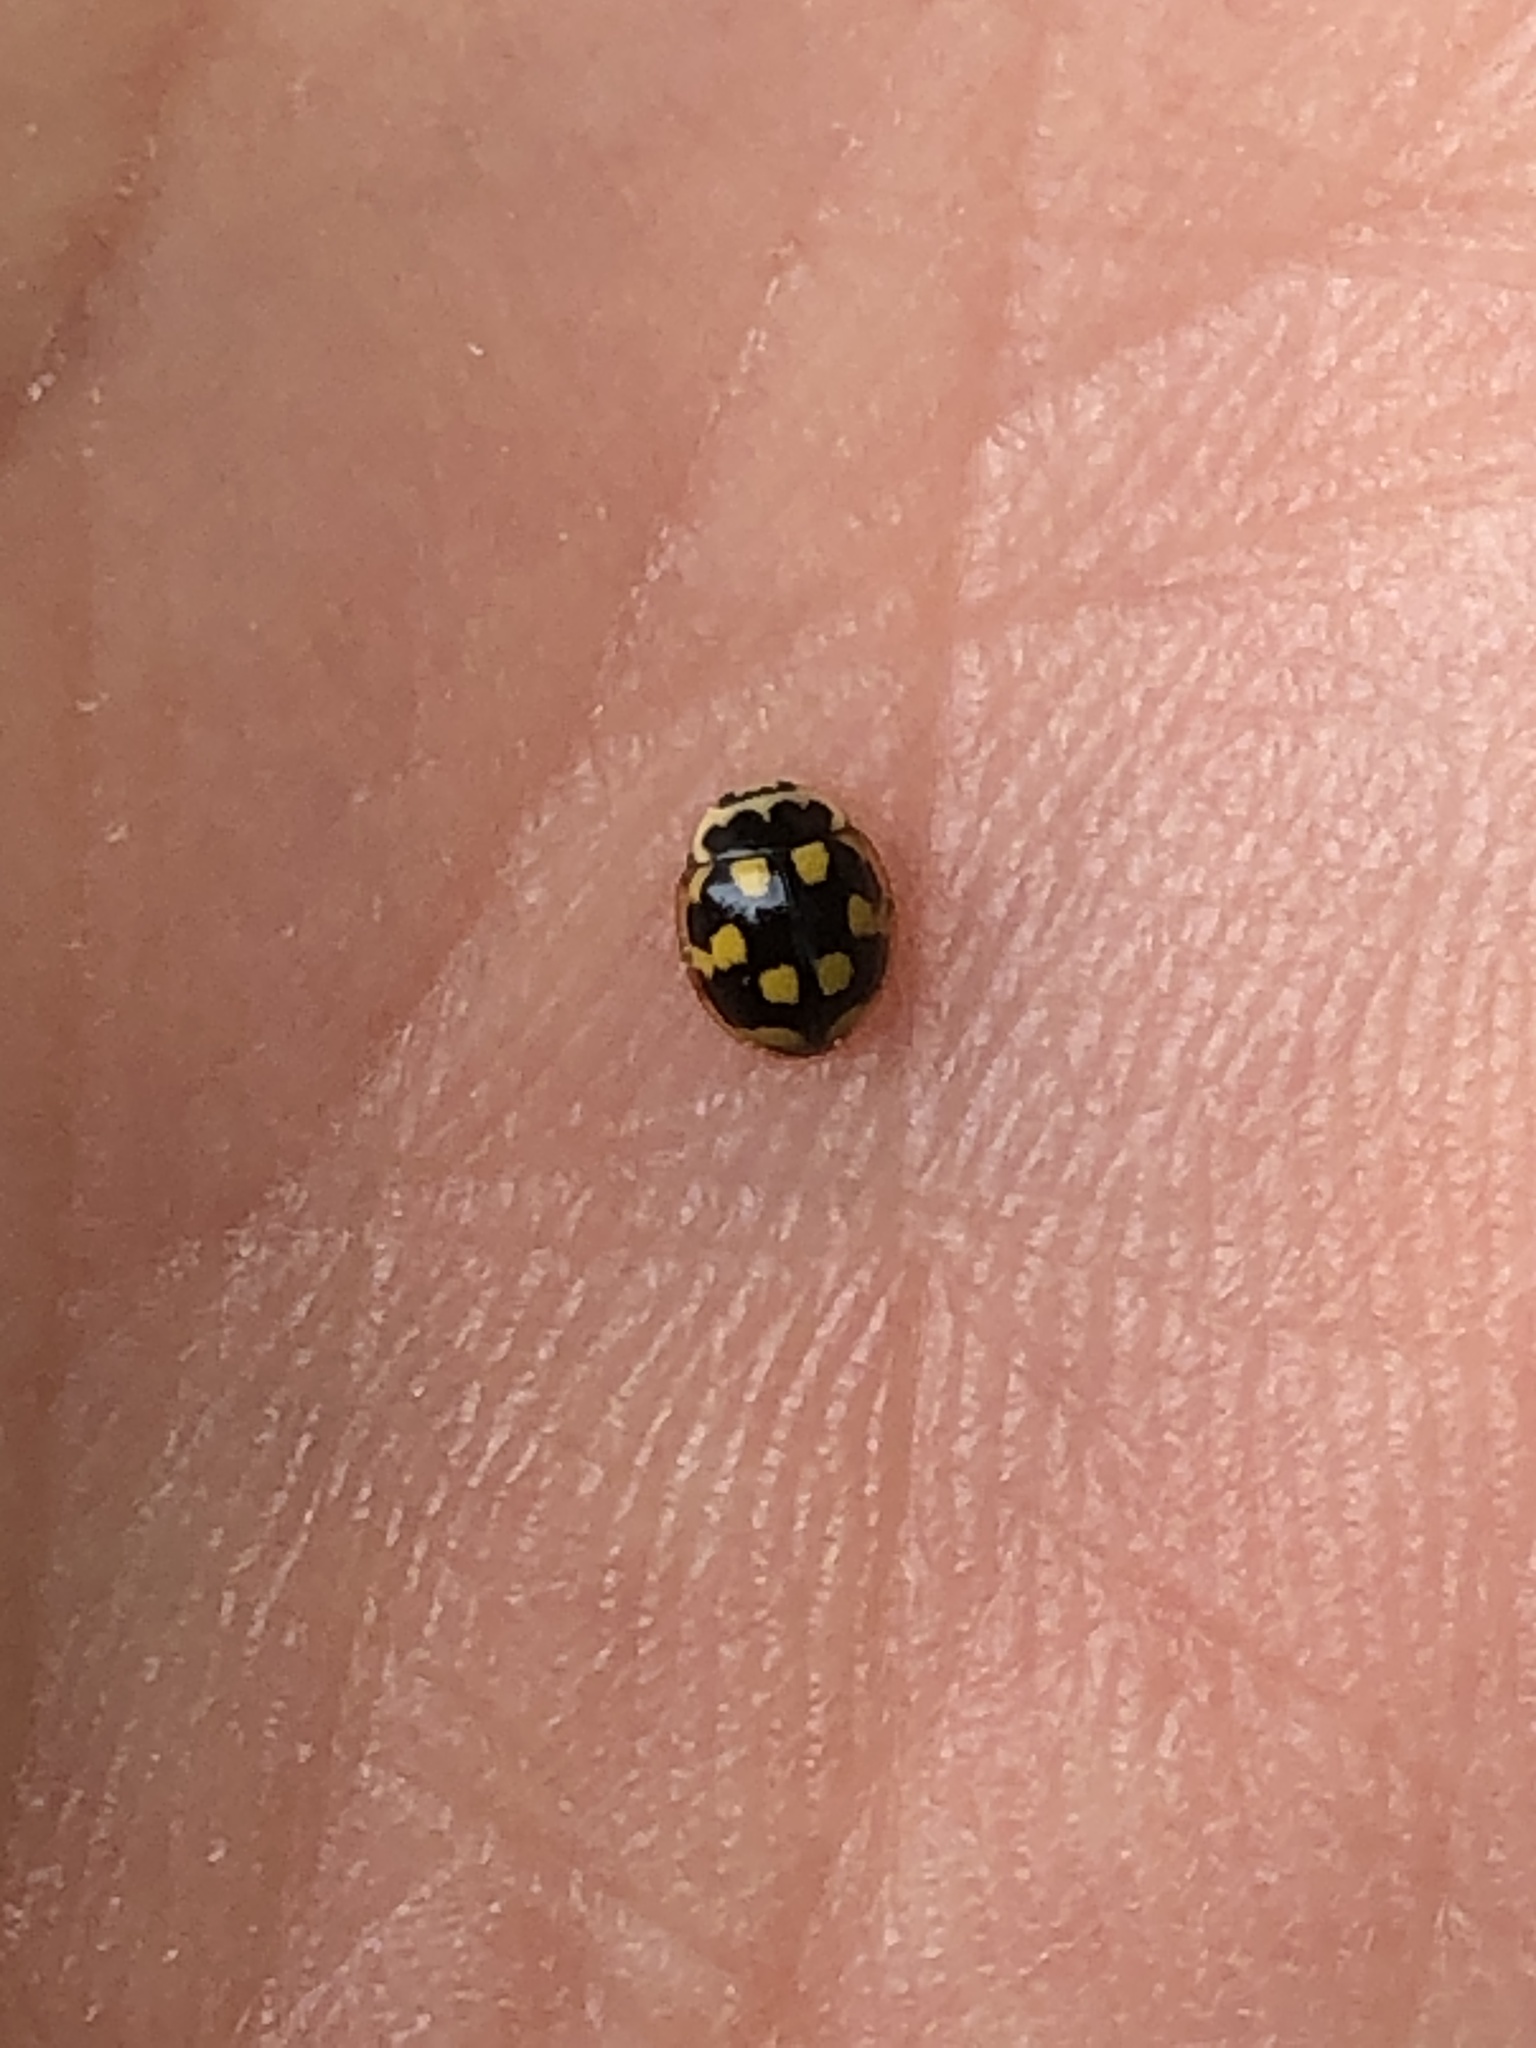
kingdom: Animalia
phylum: Arthropoda
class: Insecta
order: Coleoptera
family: Coccinellidae
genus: Propylaea
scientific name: Propylaea quatuordecimpunctata
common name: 14-spotted ladybird beetle
